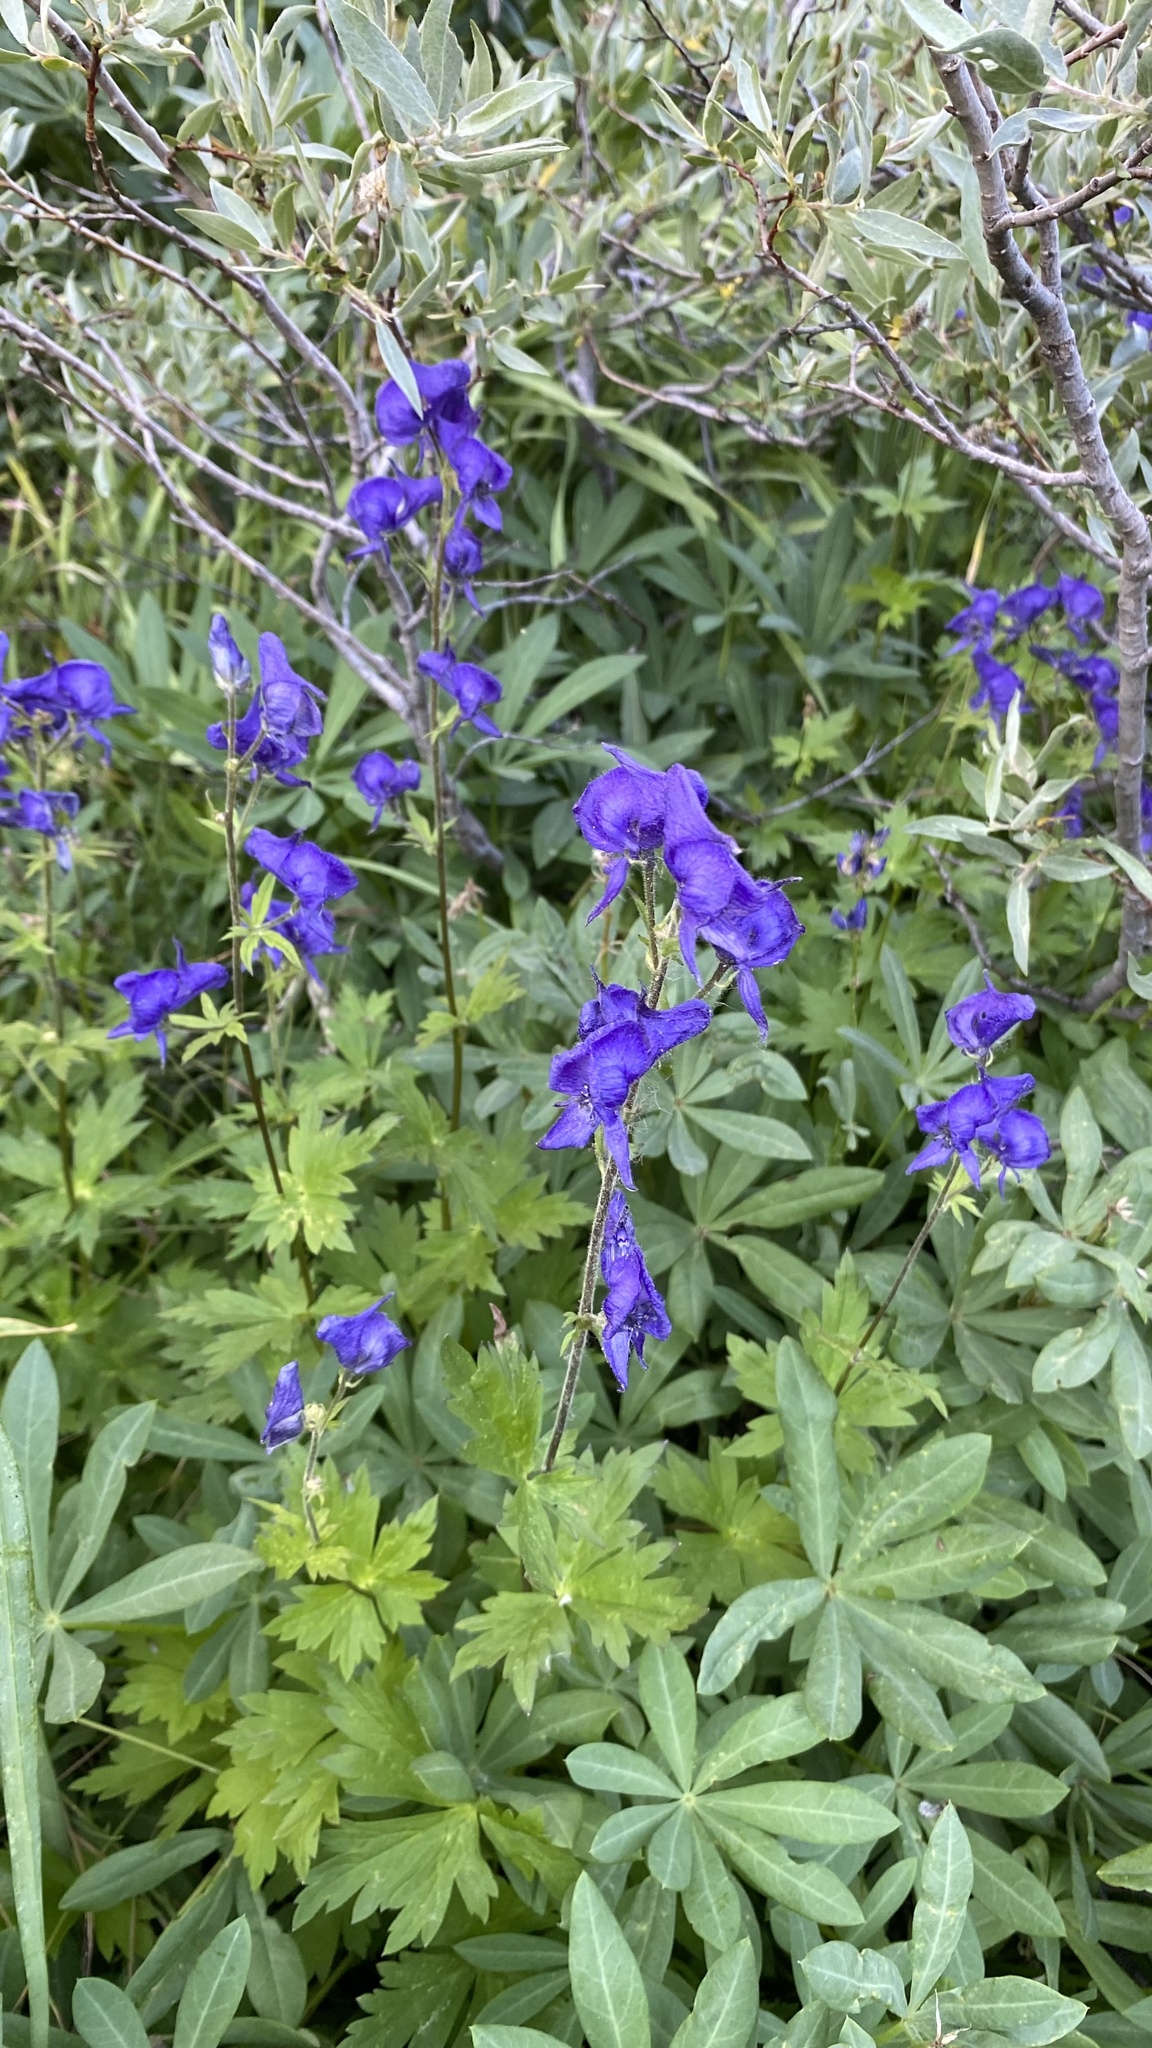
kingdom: Plantae
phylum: Tracheophyta
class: Magnoliopsida
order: Ranunculales
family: Ranunculaceae
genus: Aconitum
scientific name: Aconitum columbianum
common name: Columbia aconite
